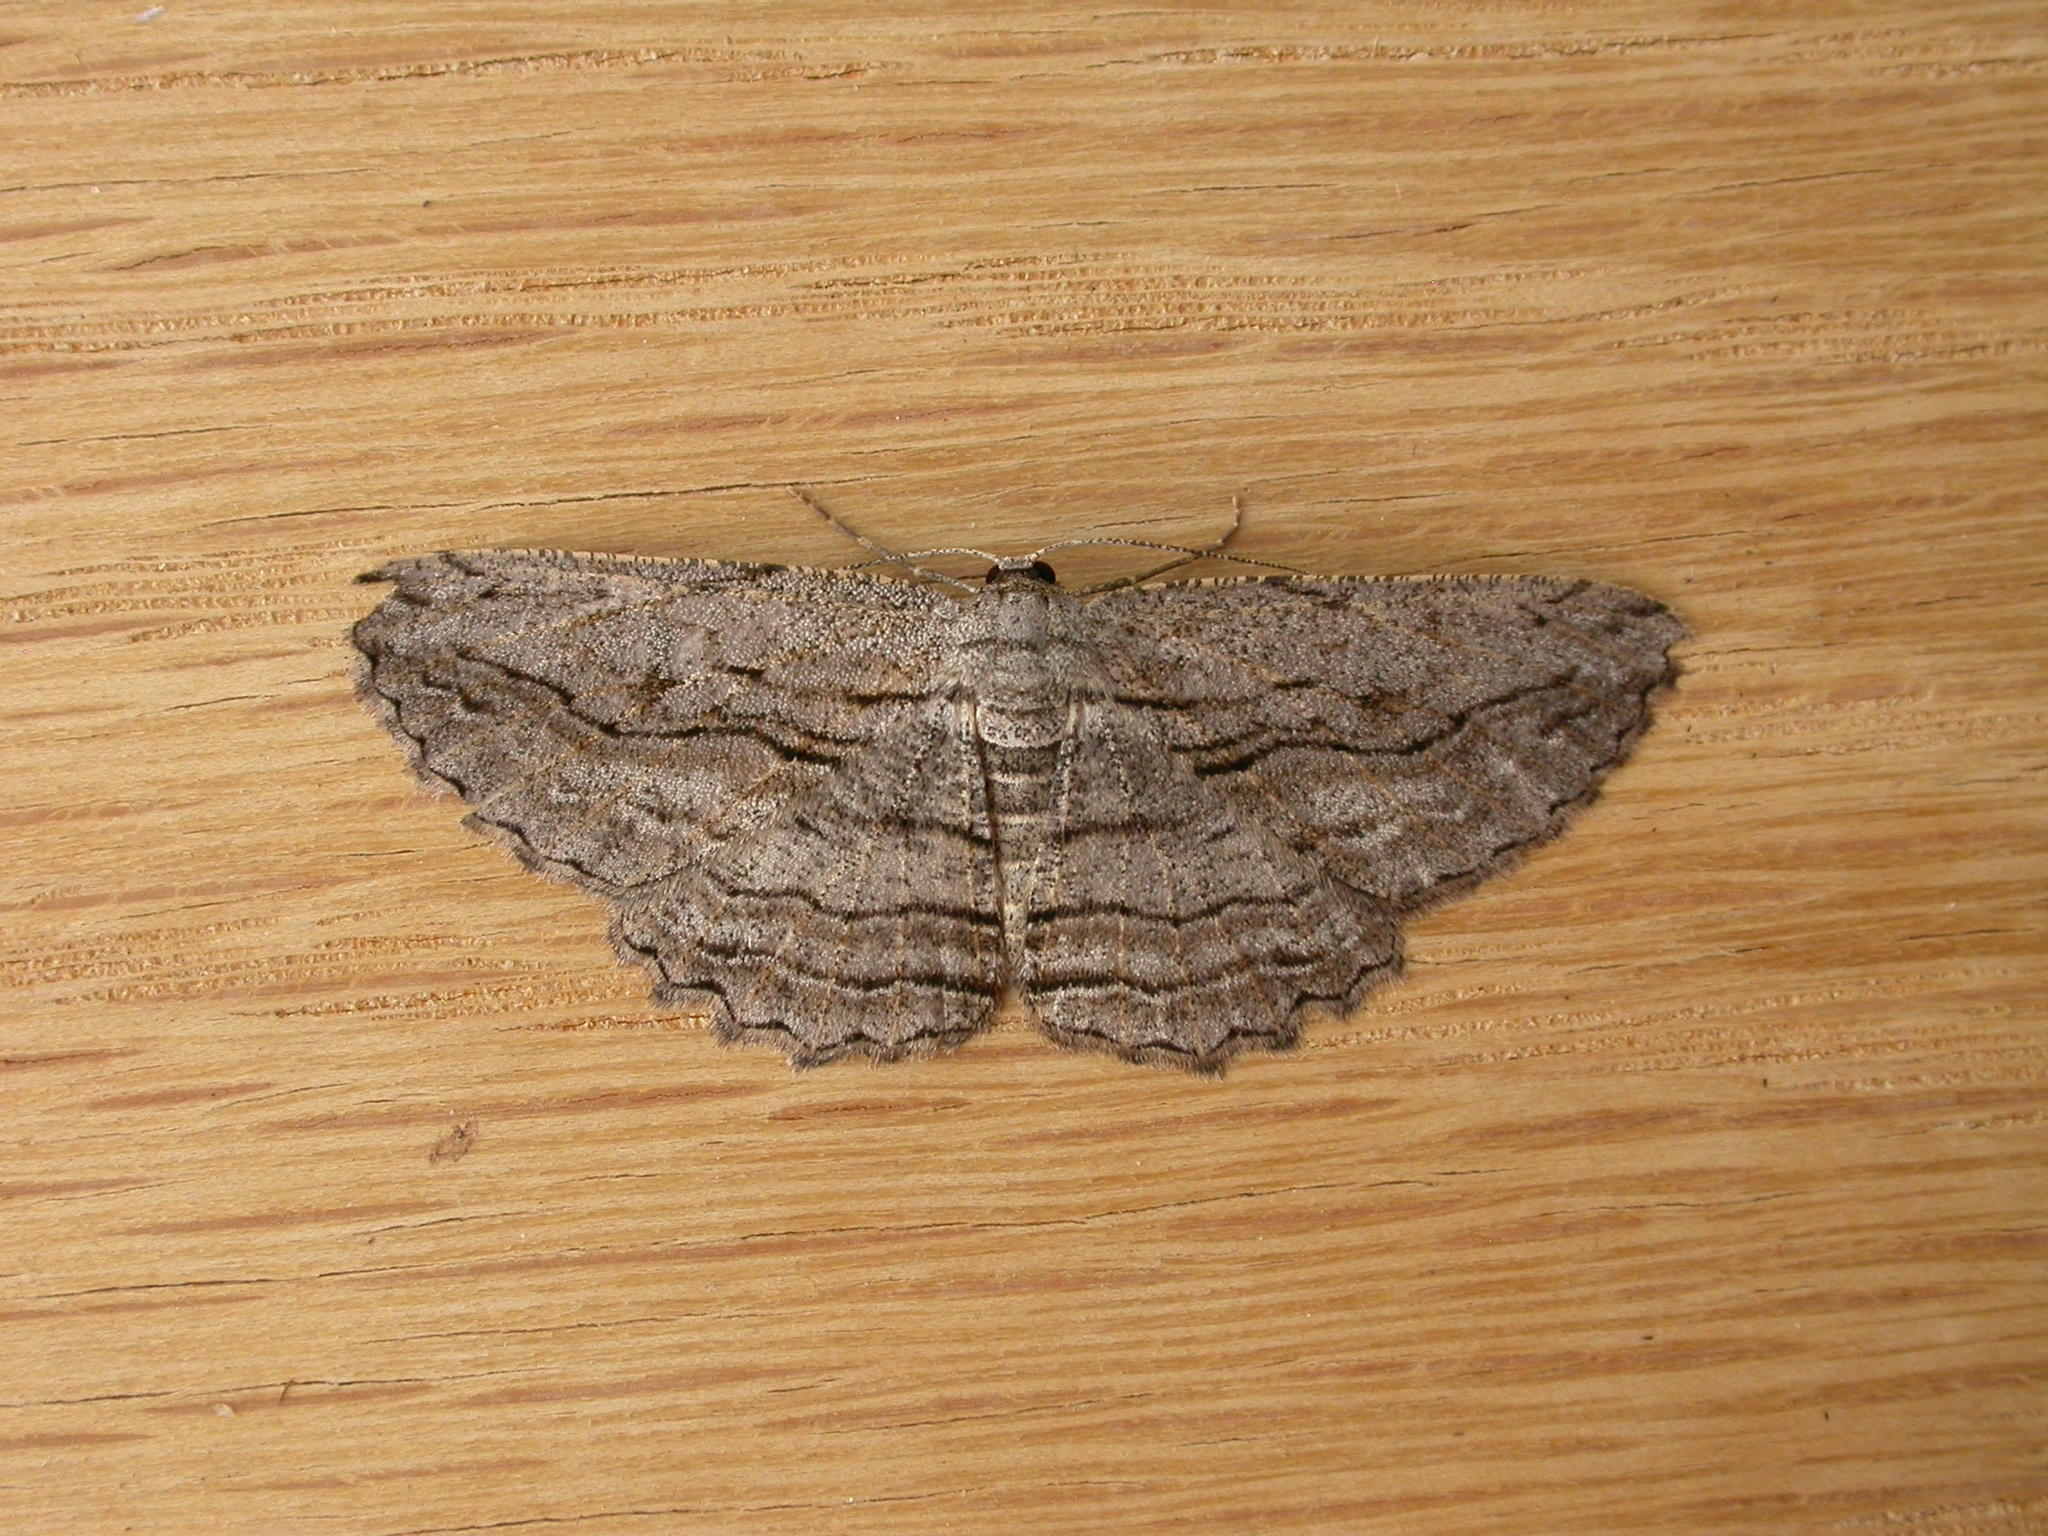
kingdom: Animalia
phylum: Arthropoda
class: Insecta
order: Lepidoptera
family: Geometridae
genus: Scioglyptis
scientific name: Scioglyptis loxographa
